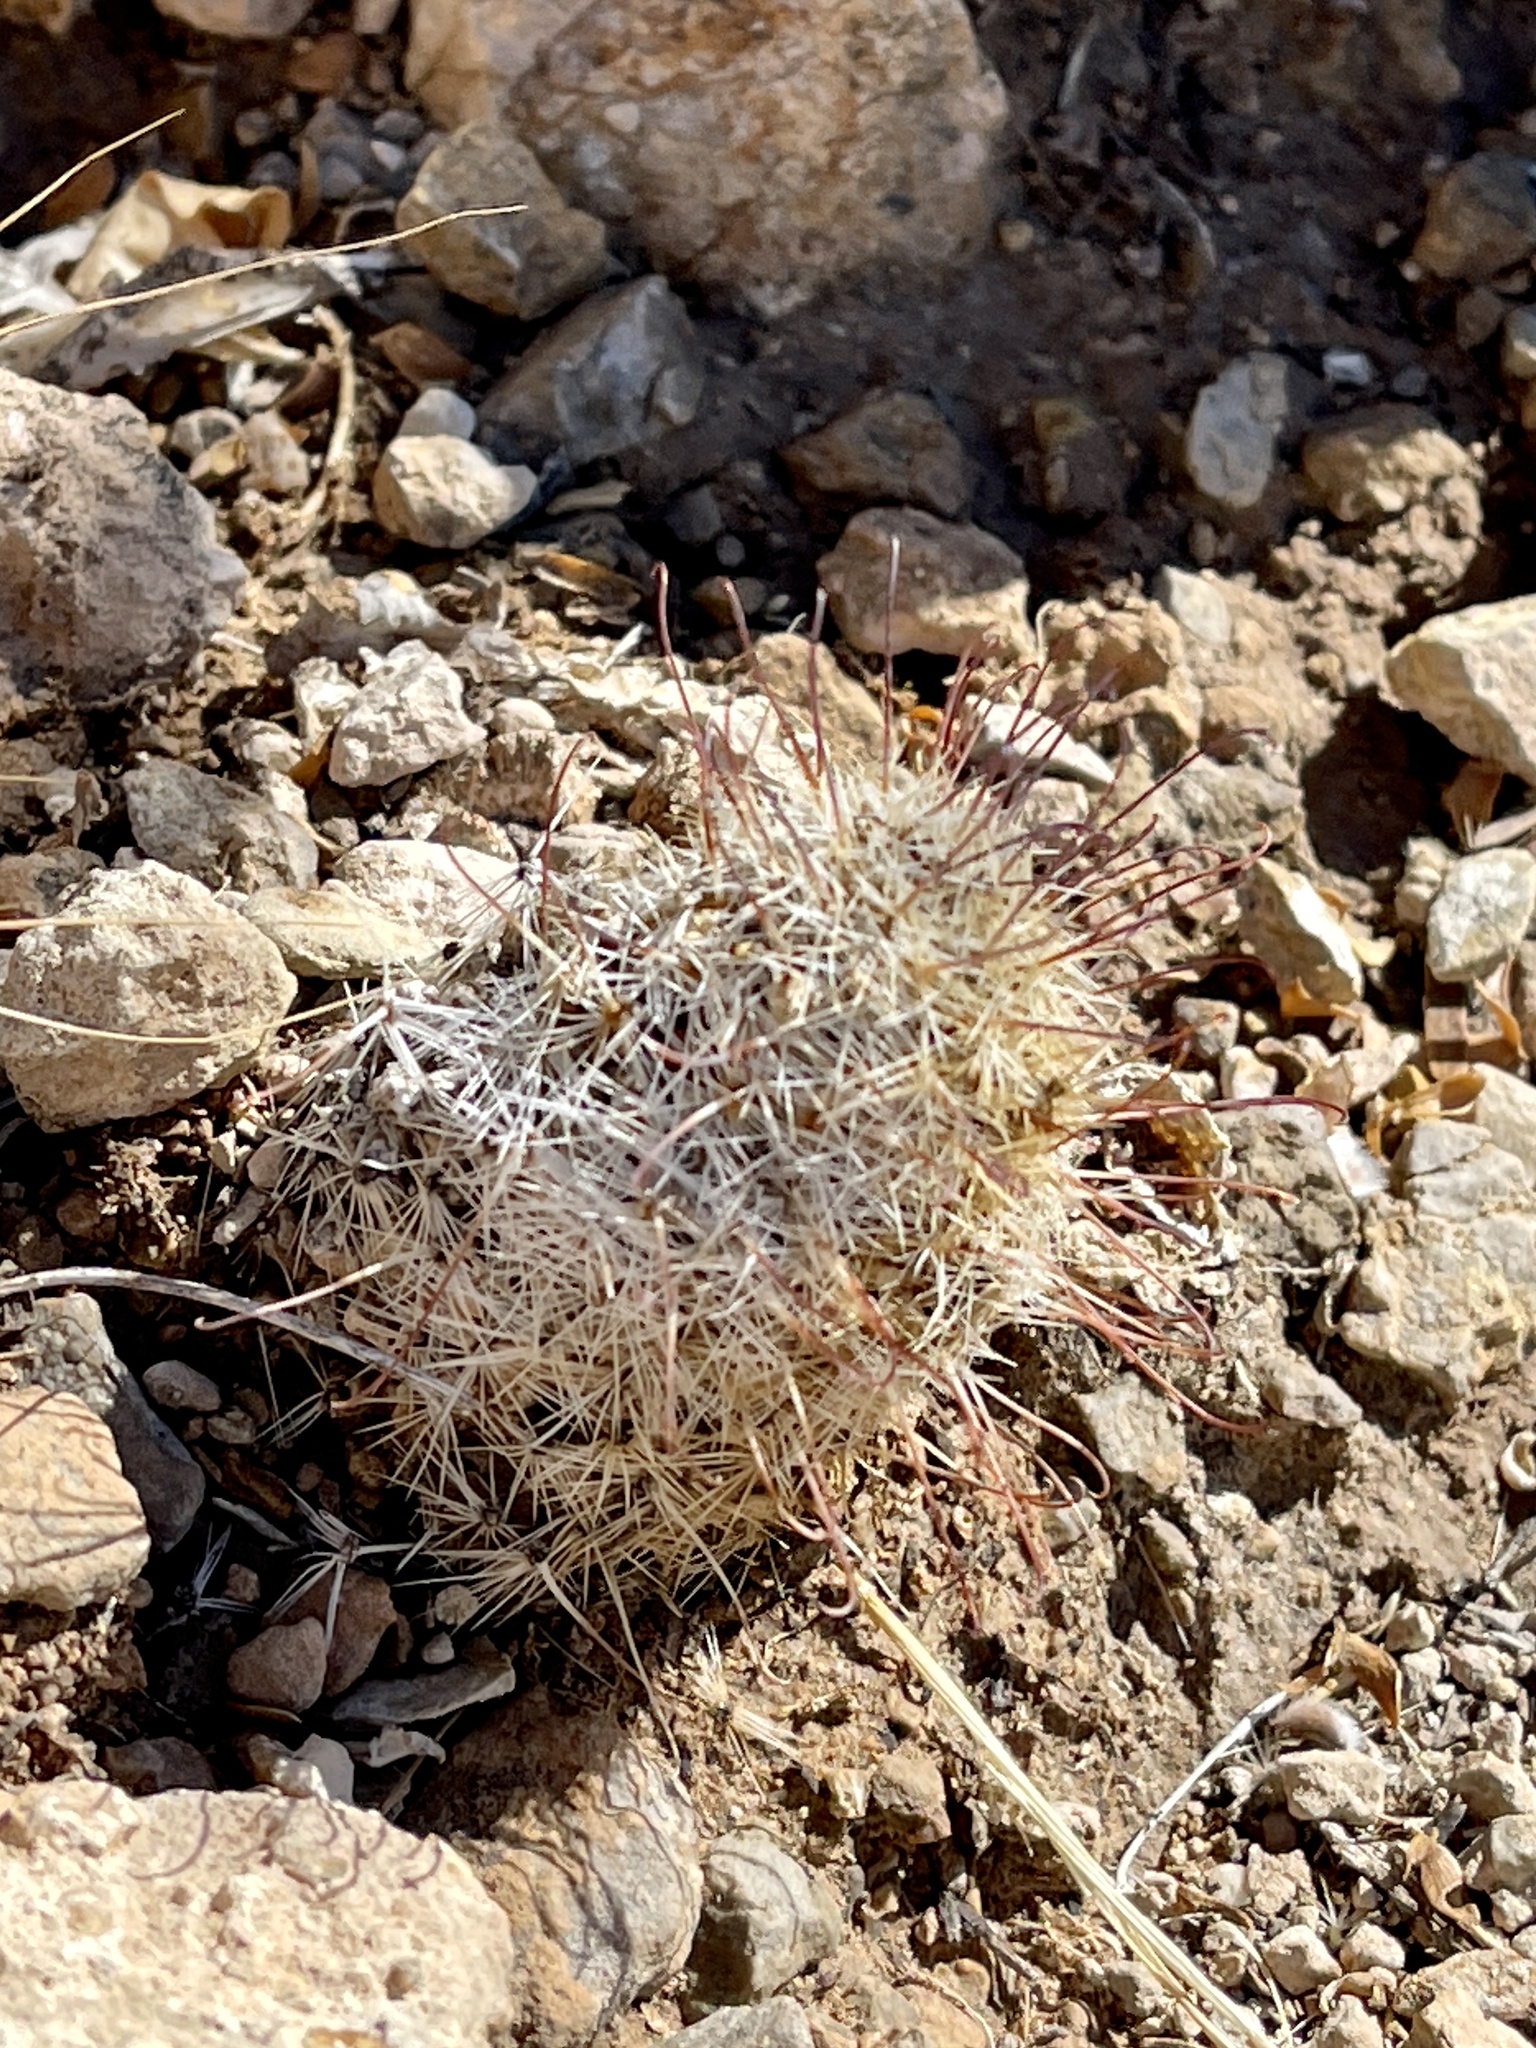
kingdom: Plantae
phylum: Tracheophyta
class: Magnoliopsida
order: Caryophyllales
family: Cactaceae
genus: Cochemiea
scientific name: Cochemiea grahamii
